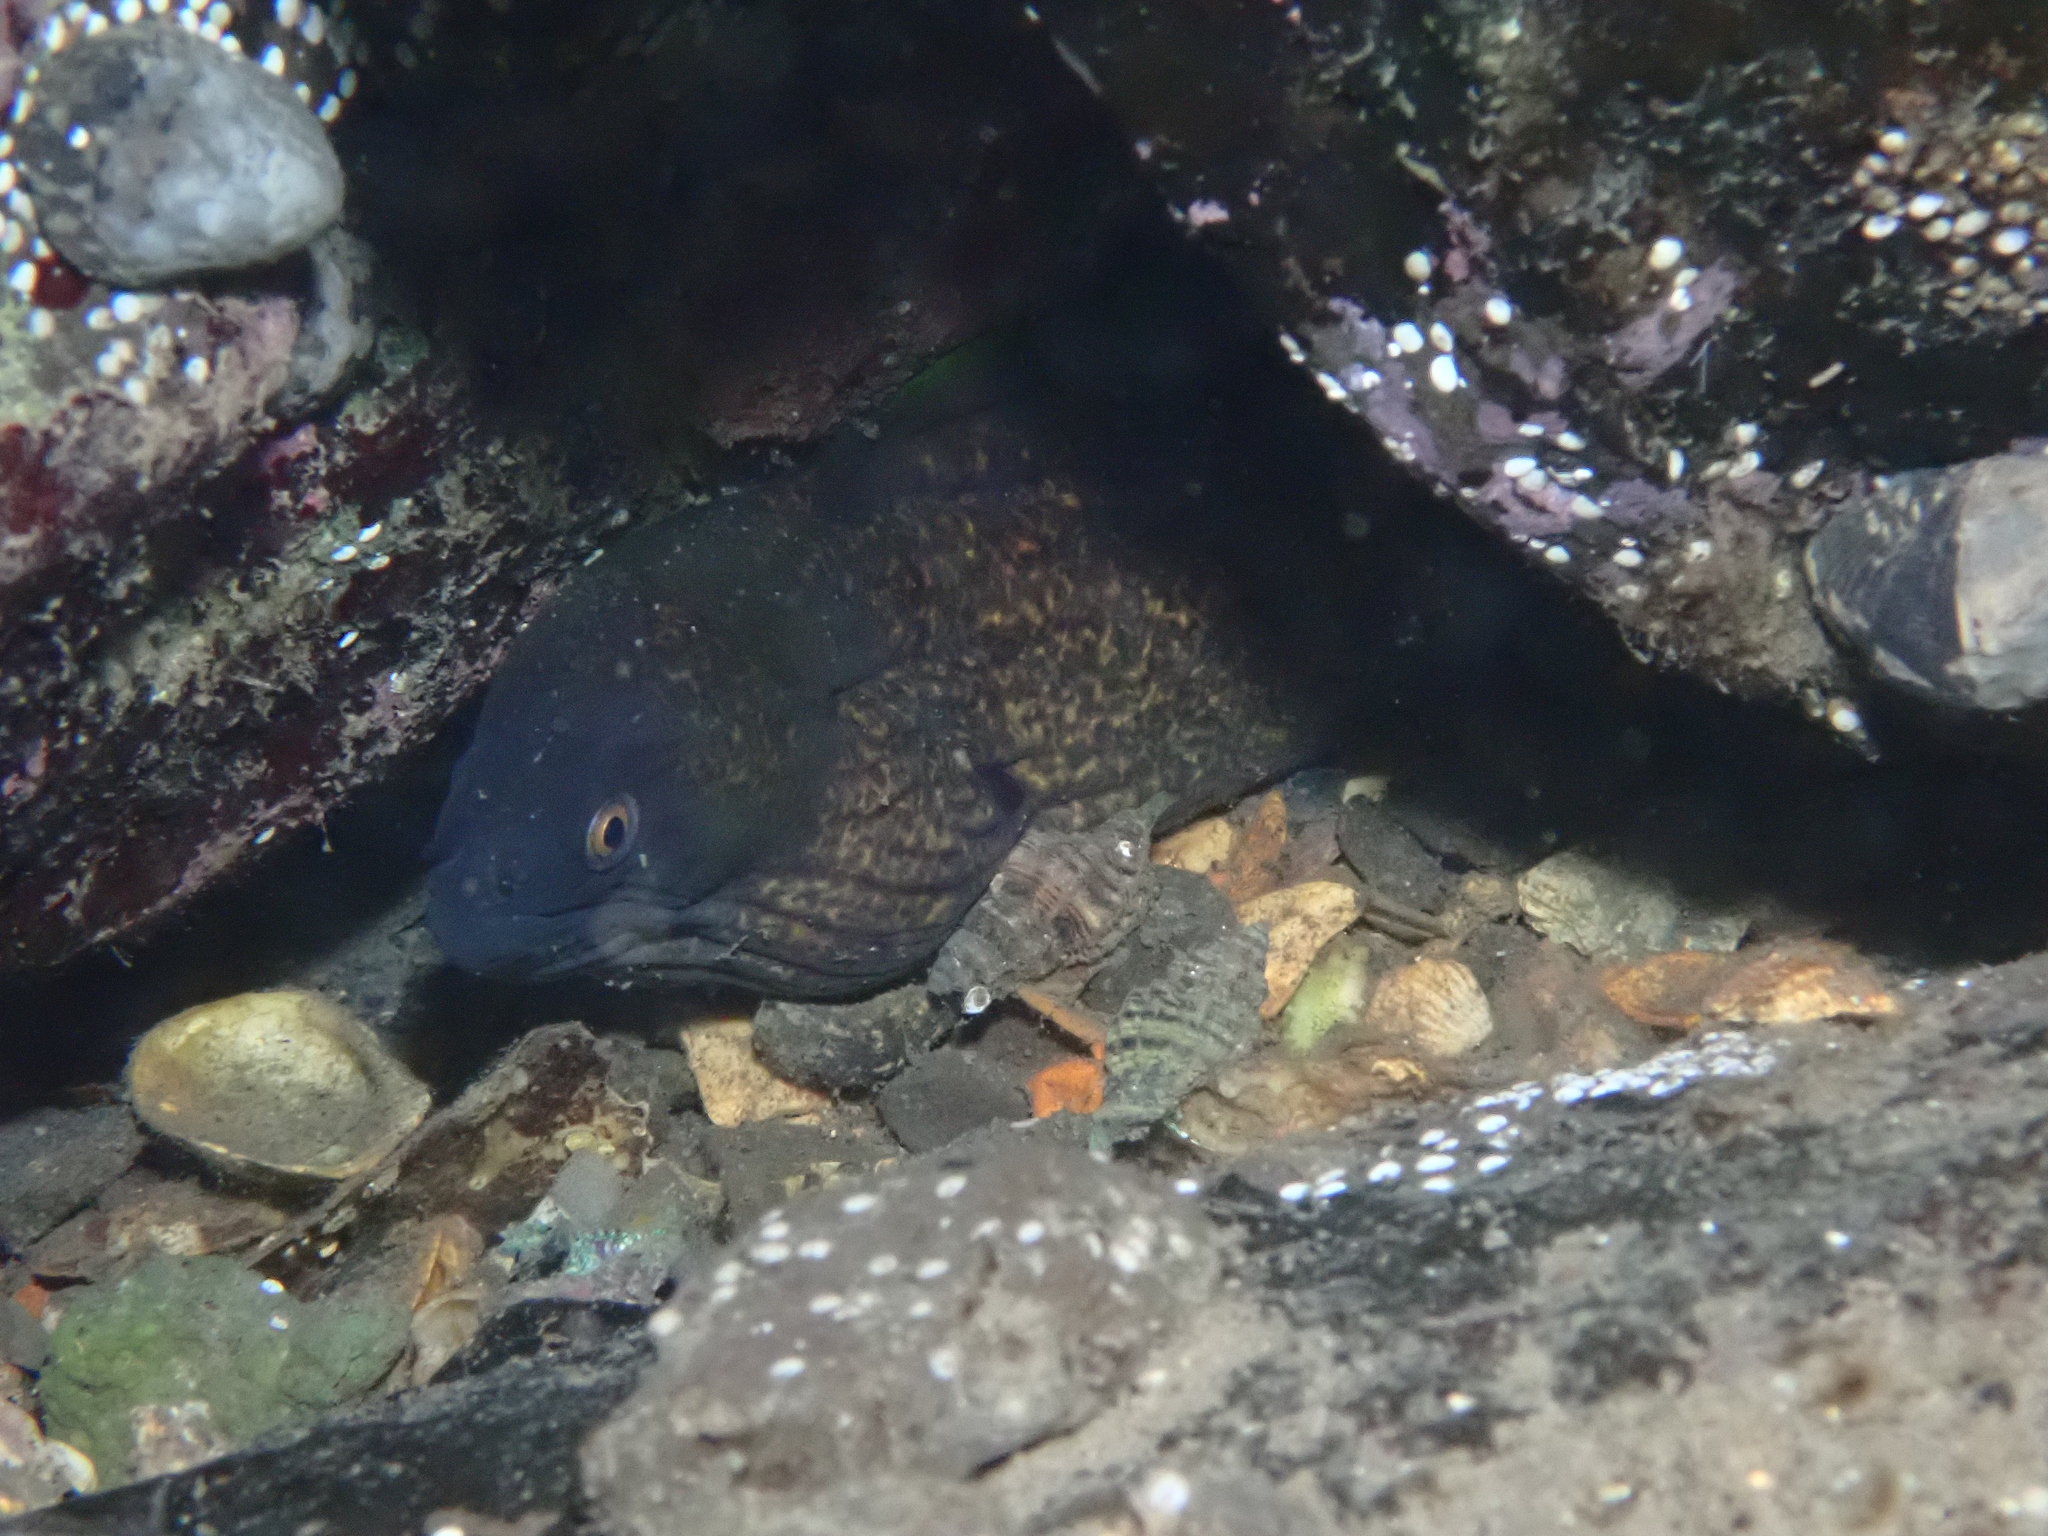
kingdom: Animalia
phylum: Chordata
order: Anguilliformes
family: Muraenidae
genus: Gymnothorax
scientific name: Gymnothorax flavimarginatus
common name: Yellow-edged moray
